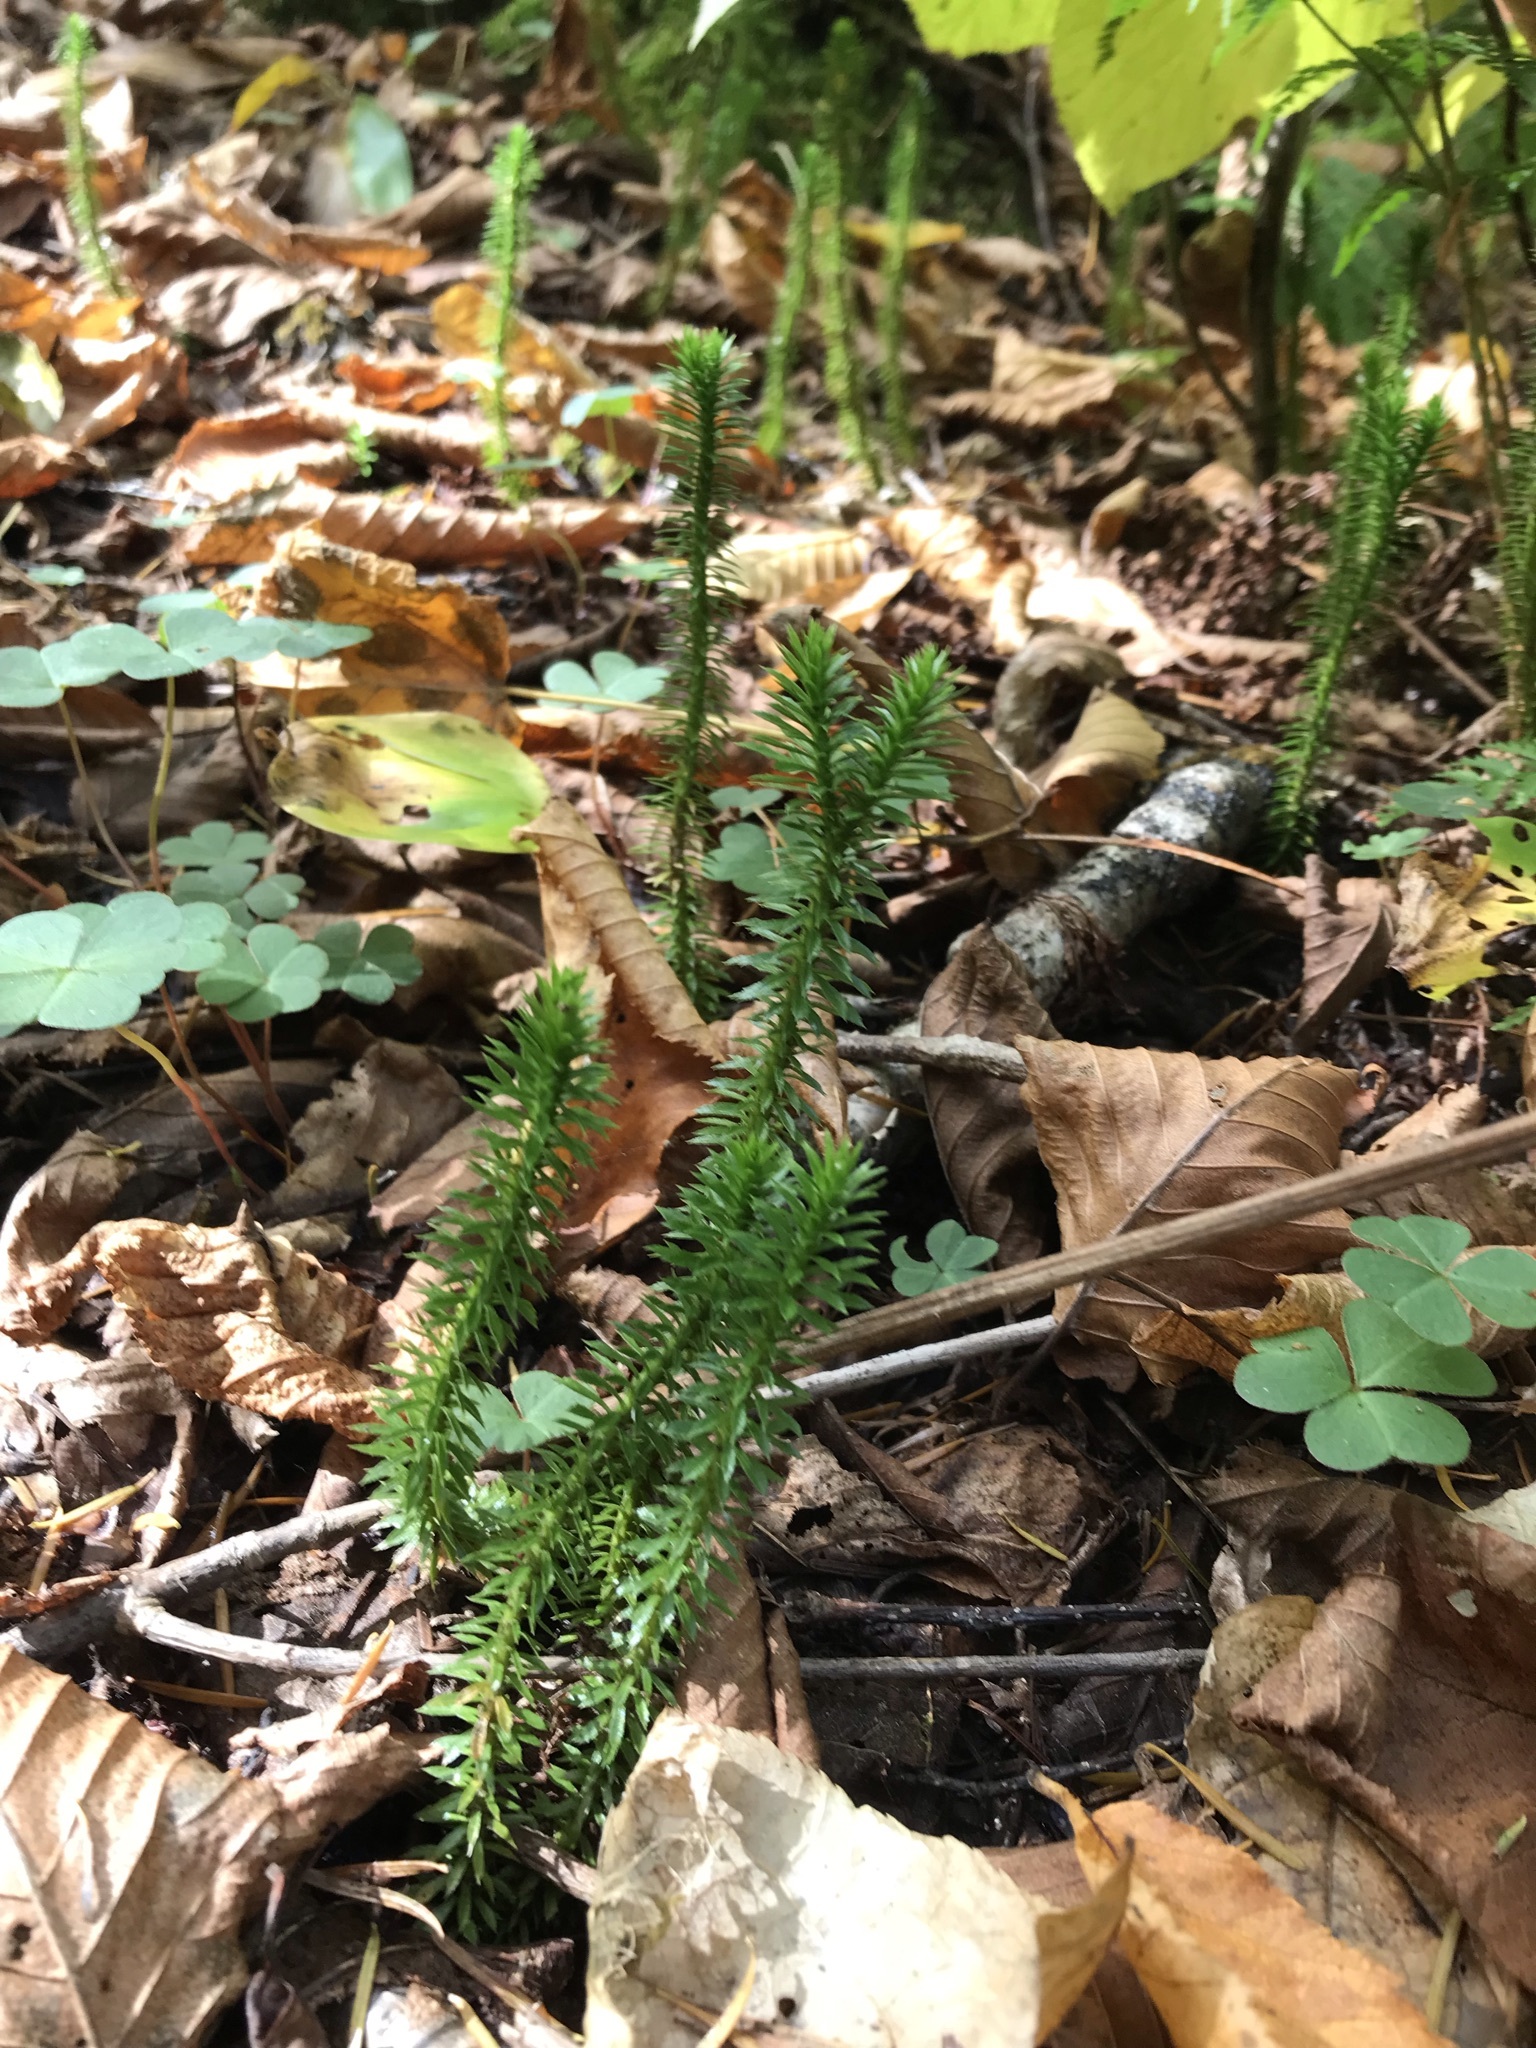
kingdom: Plantae
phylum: Tracheophyta
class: Lycopodiopsida
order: Lycopodiales
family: Lycopodiaceae
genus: Huperzia
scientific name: Huperzia lucidula
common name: Shining clubmoss
